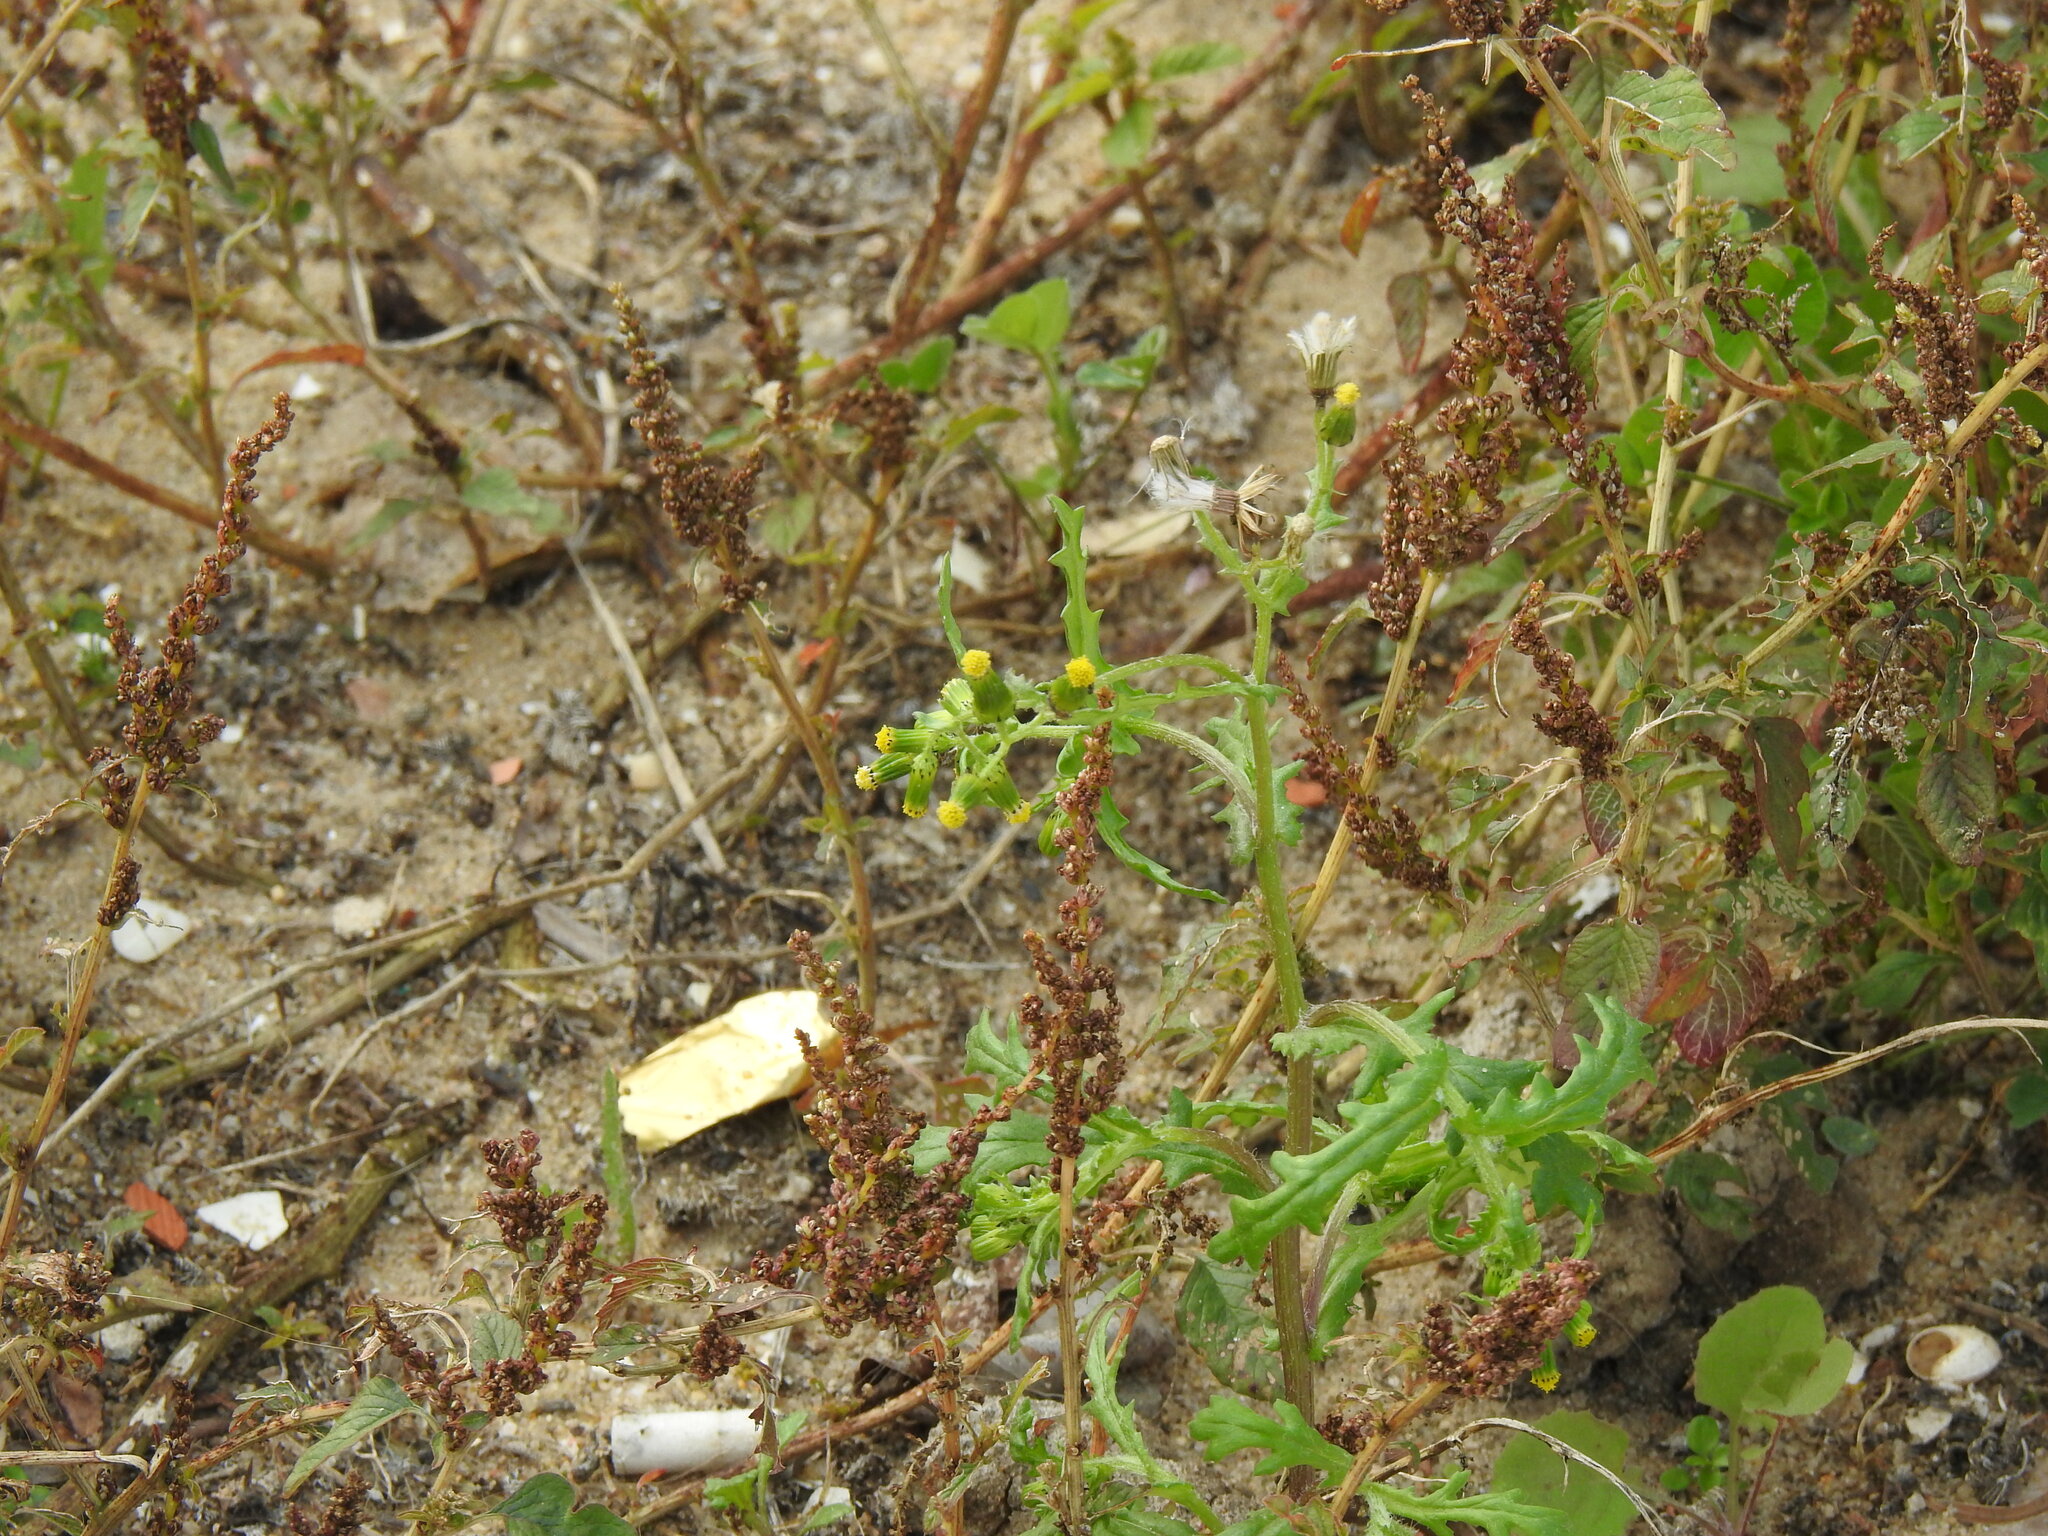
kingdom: Plantae
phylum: Tracheophyta
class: Magnoliopsida
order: Asterales
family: Asteraceae
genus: Senecio
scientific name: Senecio vulgaris
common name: Old-man-in-the-spring
